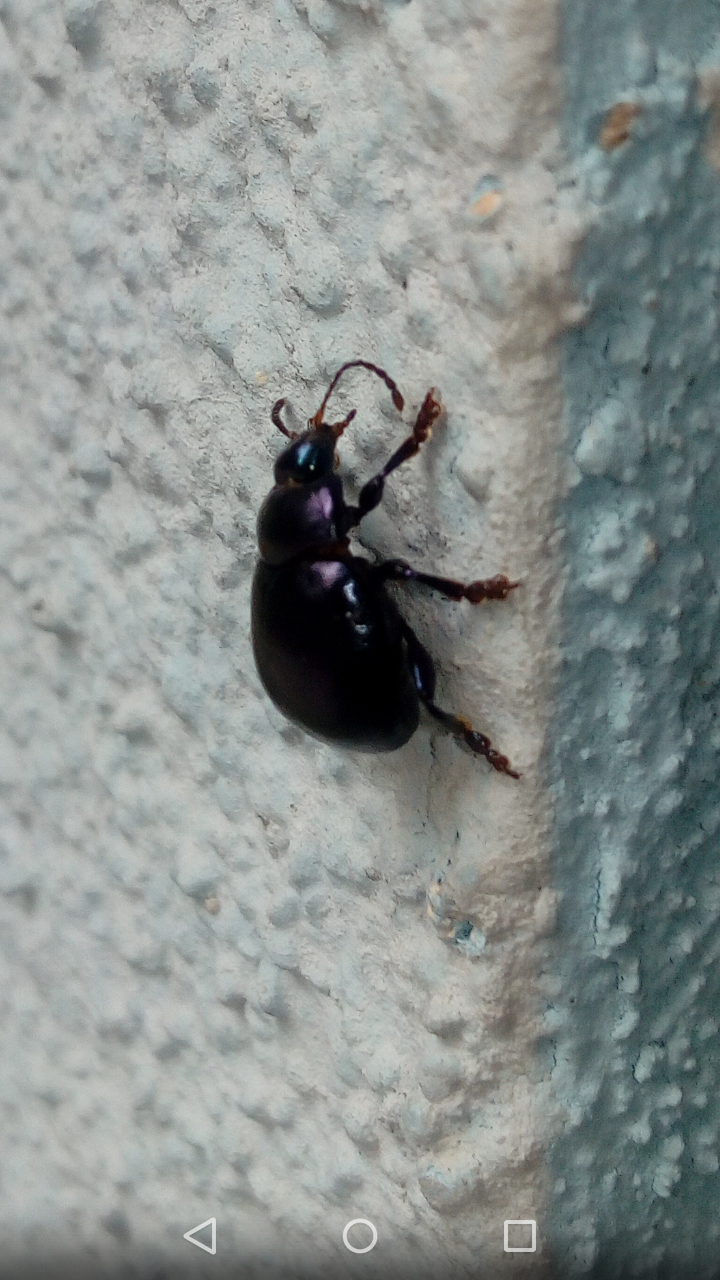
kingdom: Animalia
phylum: Arthropoda
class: Insecta
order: Coleoptera
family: Chrysomelidae
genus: Chrysolina
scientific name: Chrysolina sturmi
